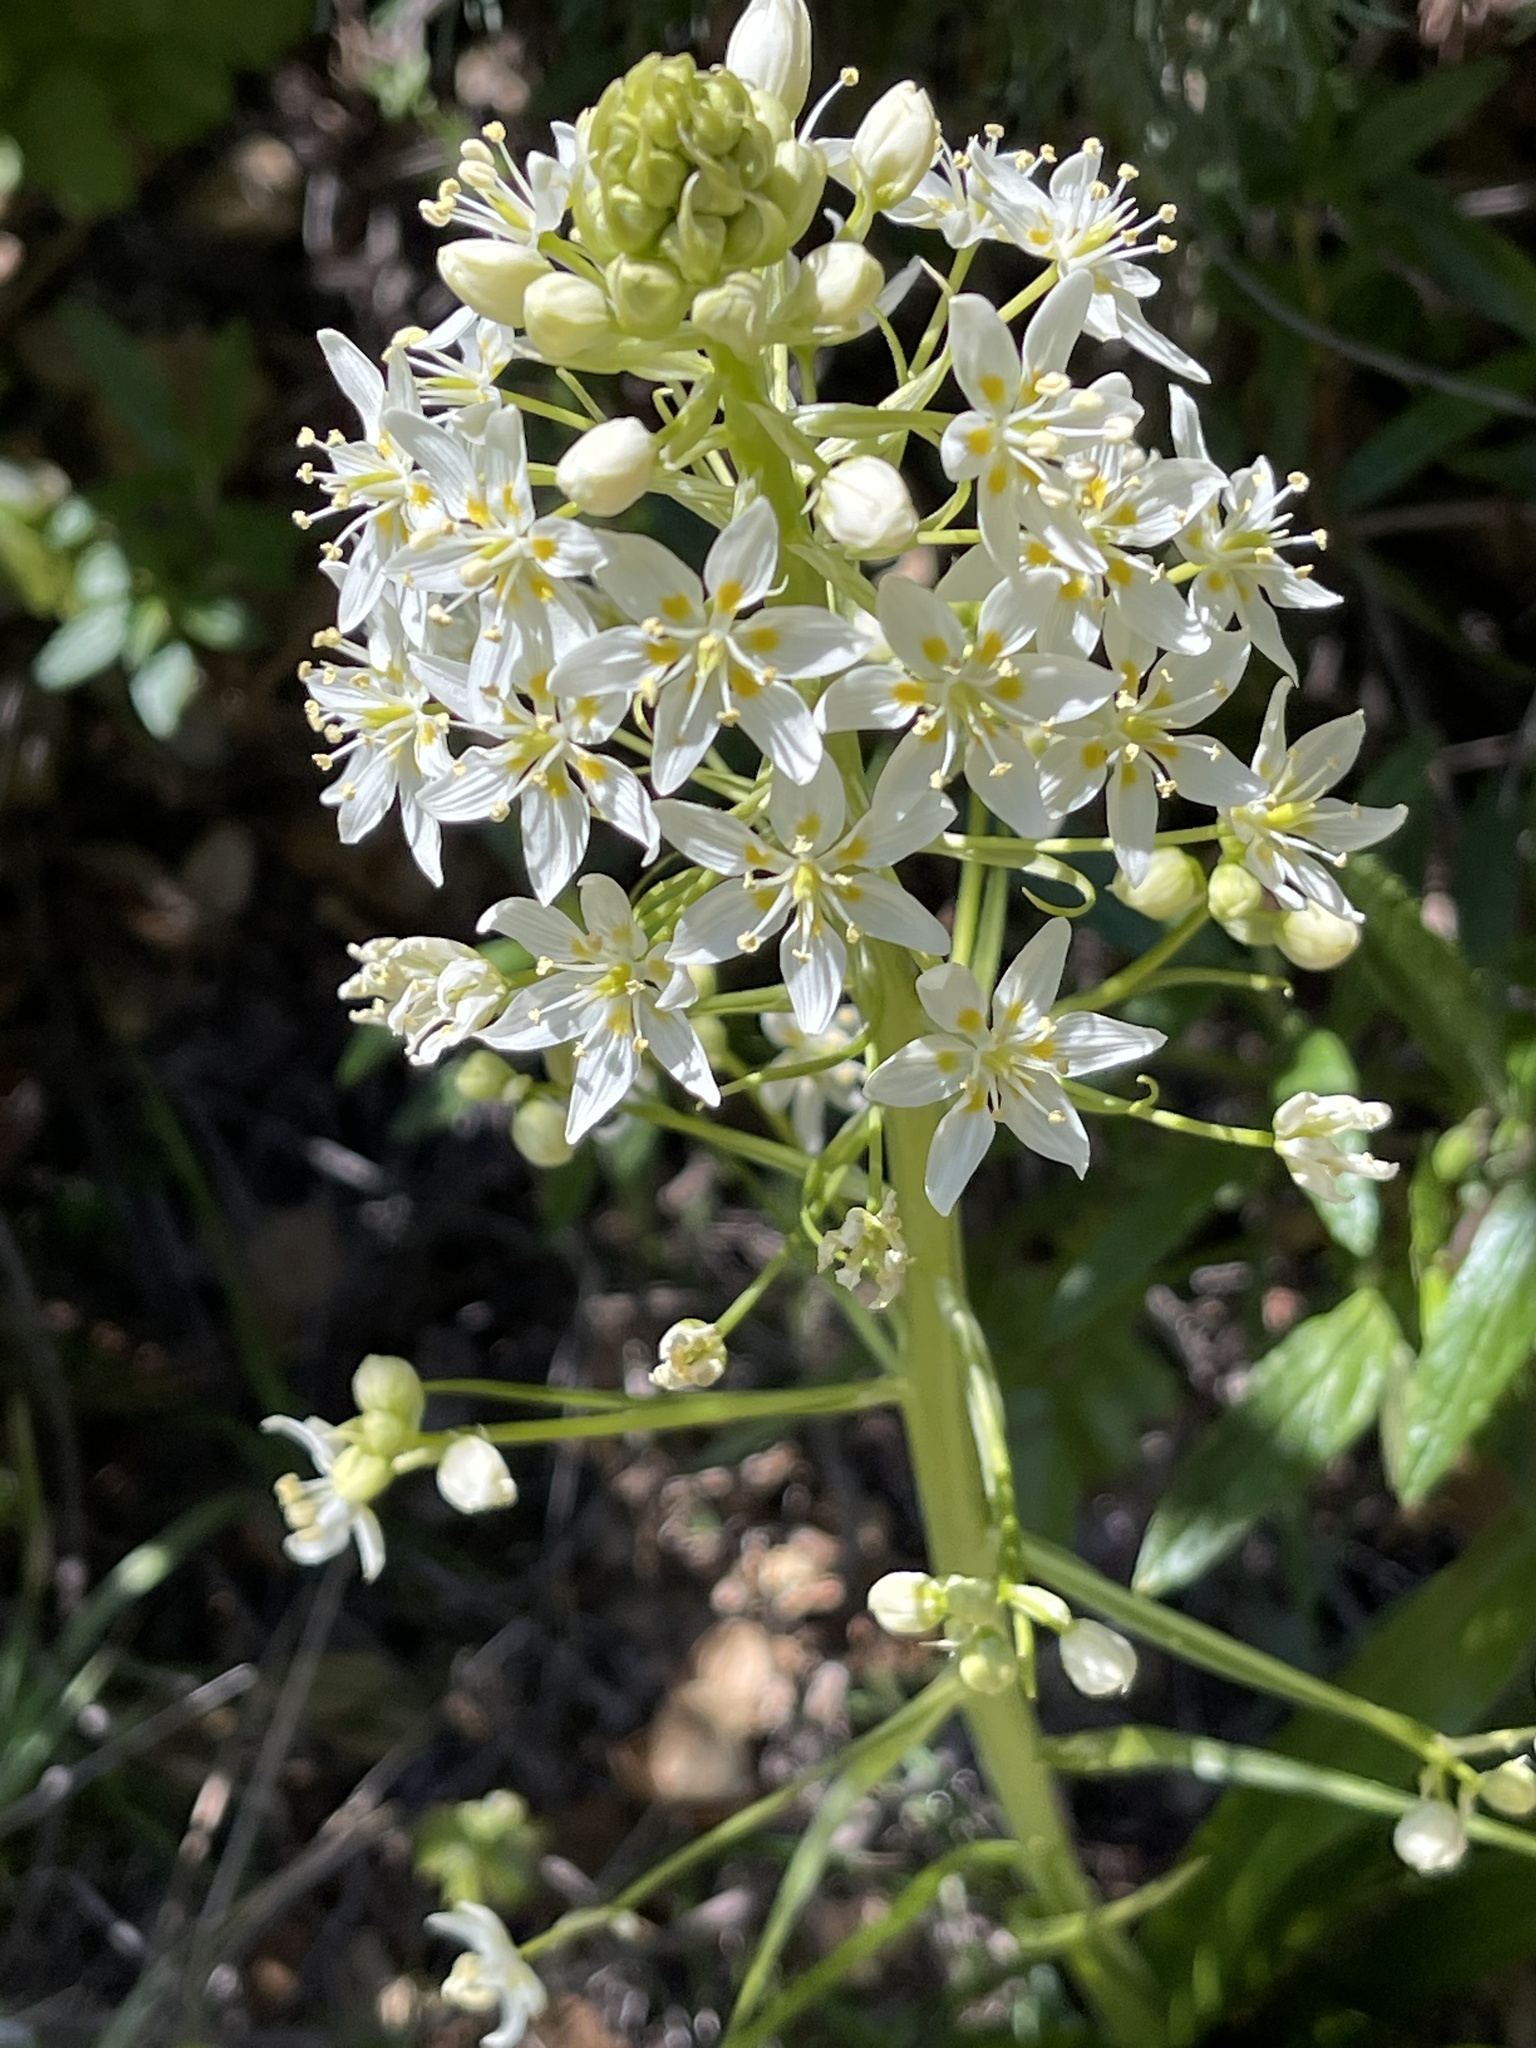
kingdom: Plantae
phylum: Tracheophyta
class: Liliopsida
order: Liliales
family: Melanthiaceae
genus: Toxicoscordion
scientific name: Toxicoscordion fremontii
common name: Fremont's death camas
